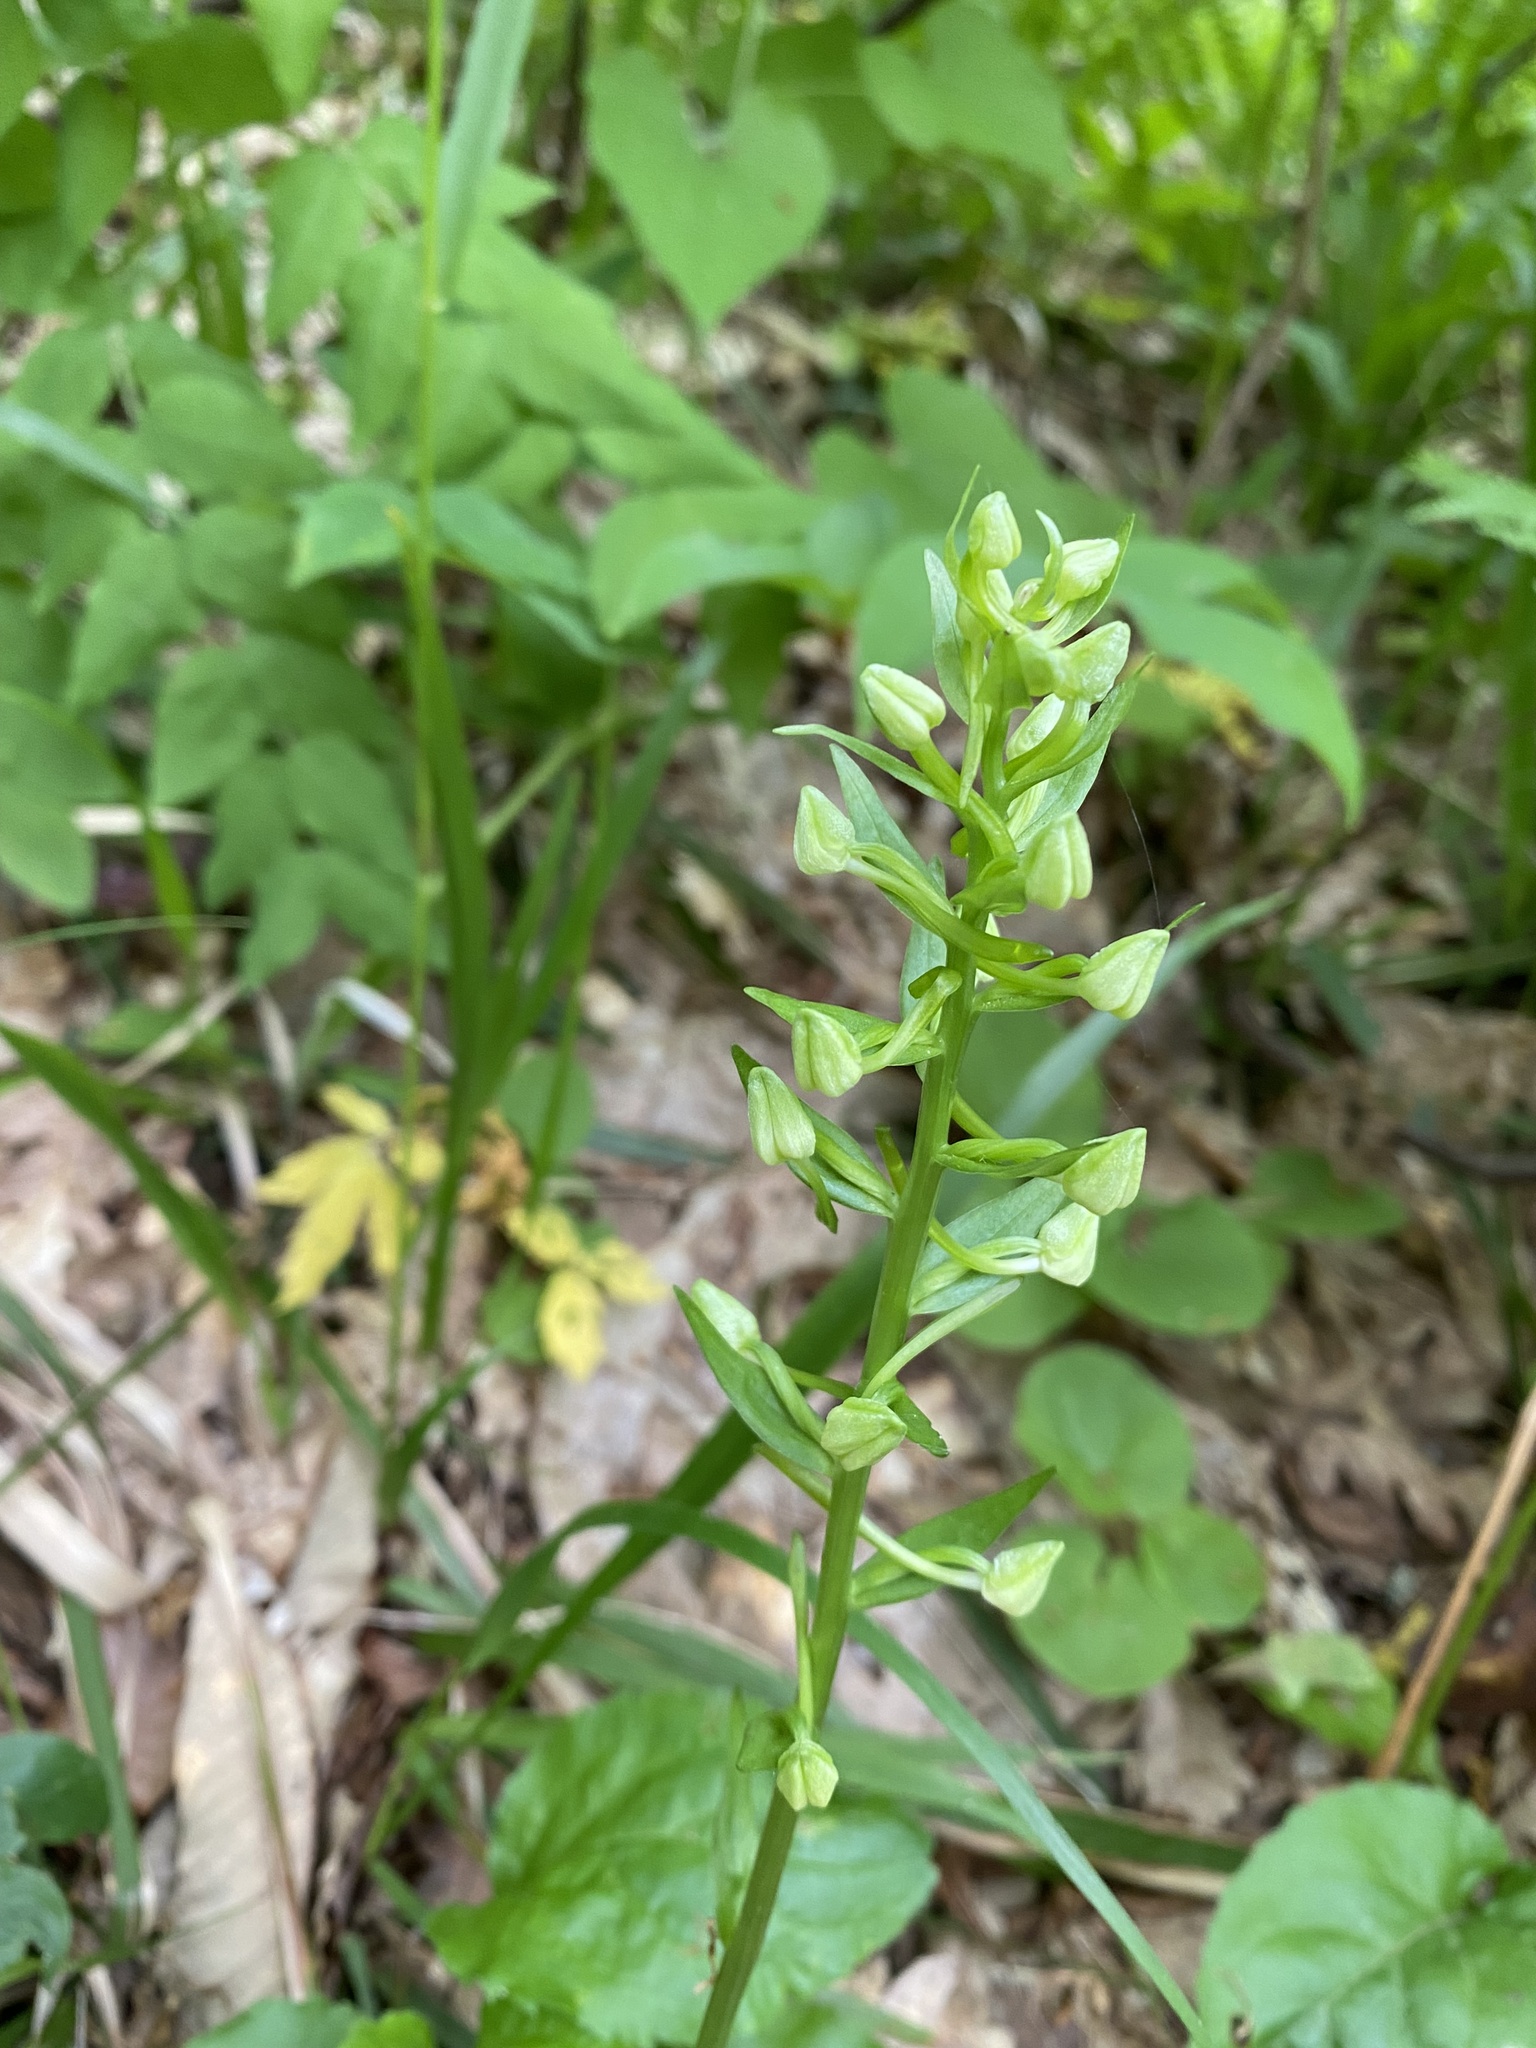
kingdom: Plantae
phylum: Tracheophyta
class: Liliopsida
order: Asparagales
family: Orchidaceae
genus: Platanthera
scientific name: Platanthera
